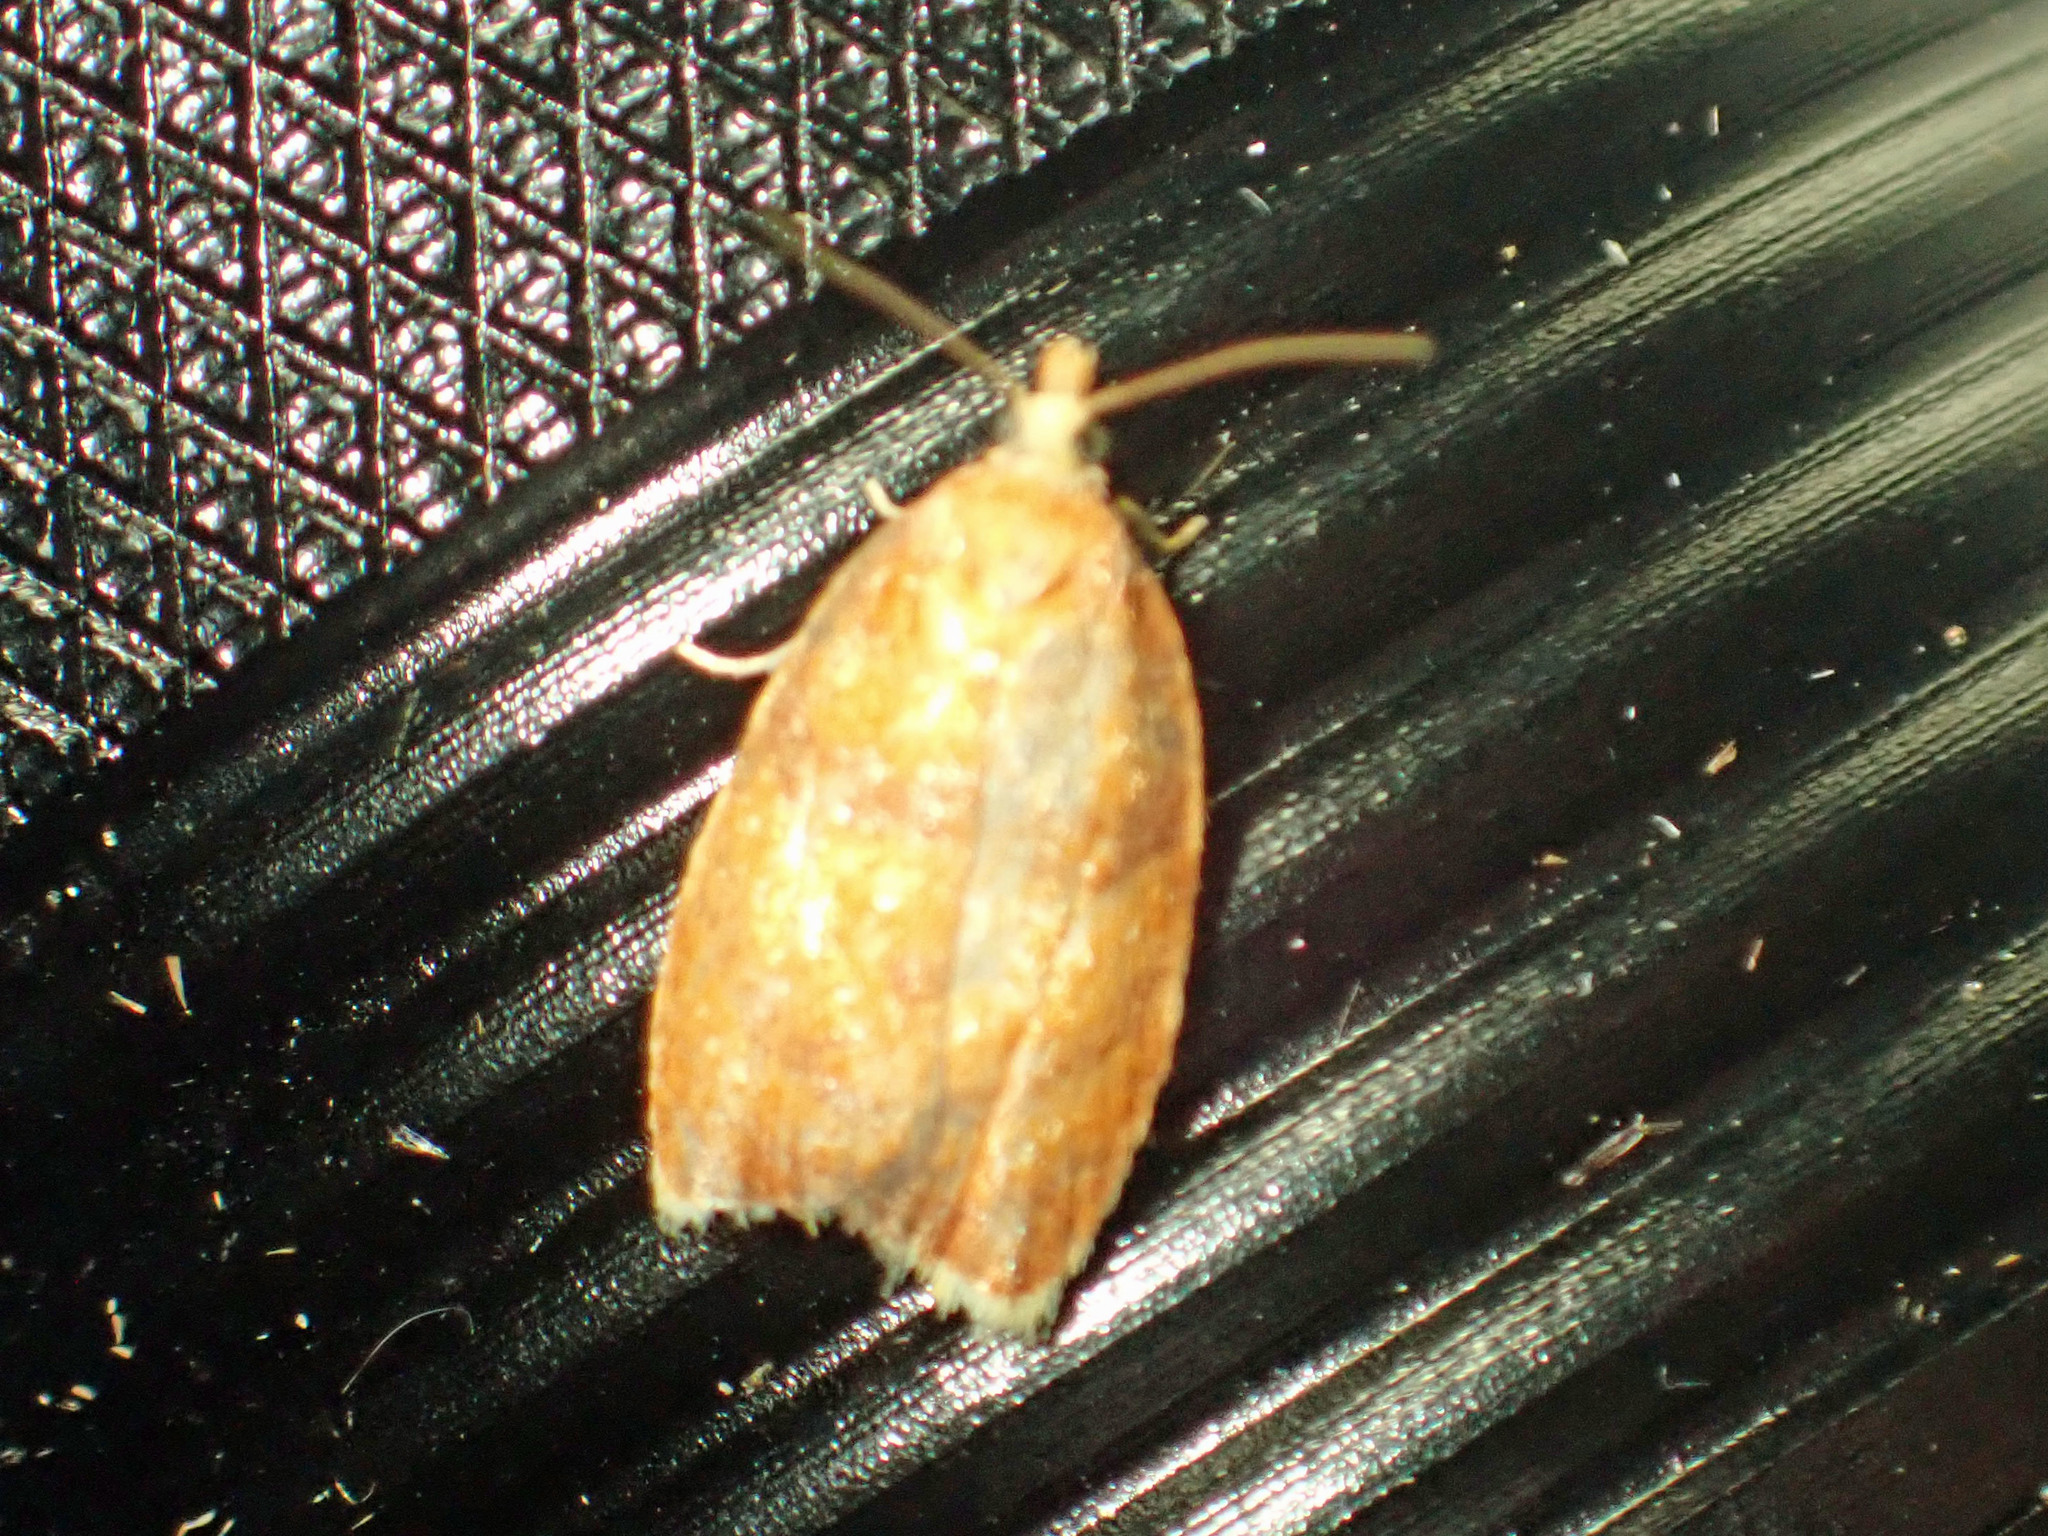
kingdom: Animalia
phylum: Arthropoda
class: Insecta
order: Lepidoptera
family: Tortricidae
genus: Acleris
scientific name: Acleris curvalana
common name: Blueberry leaftier moth
